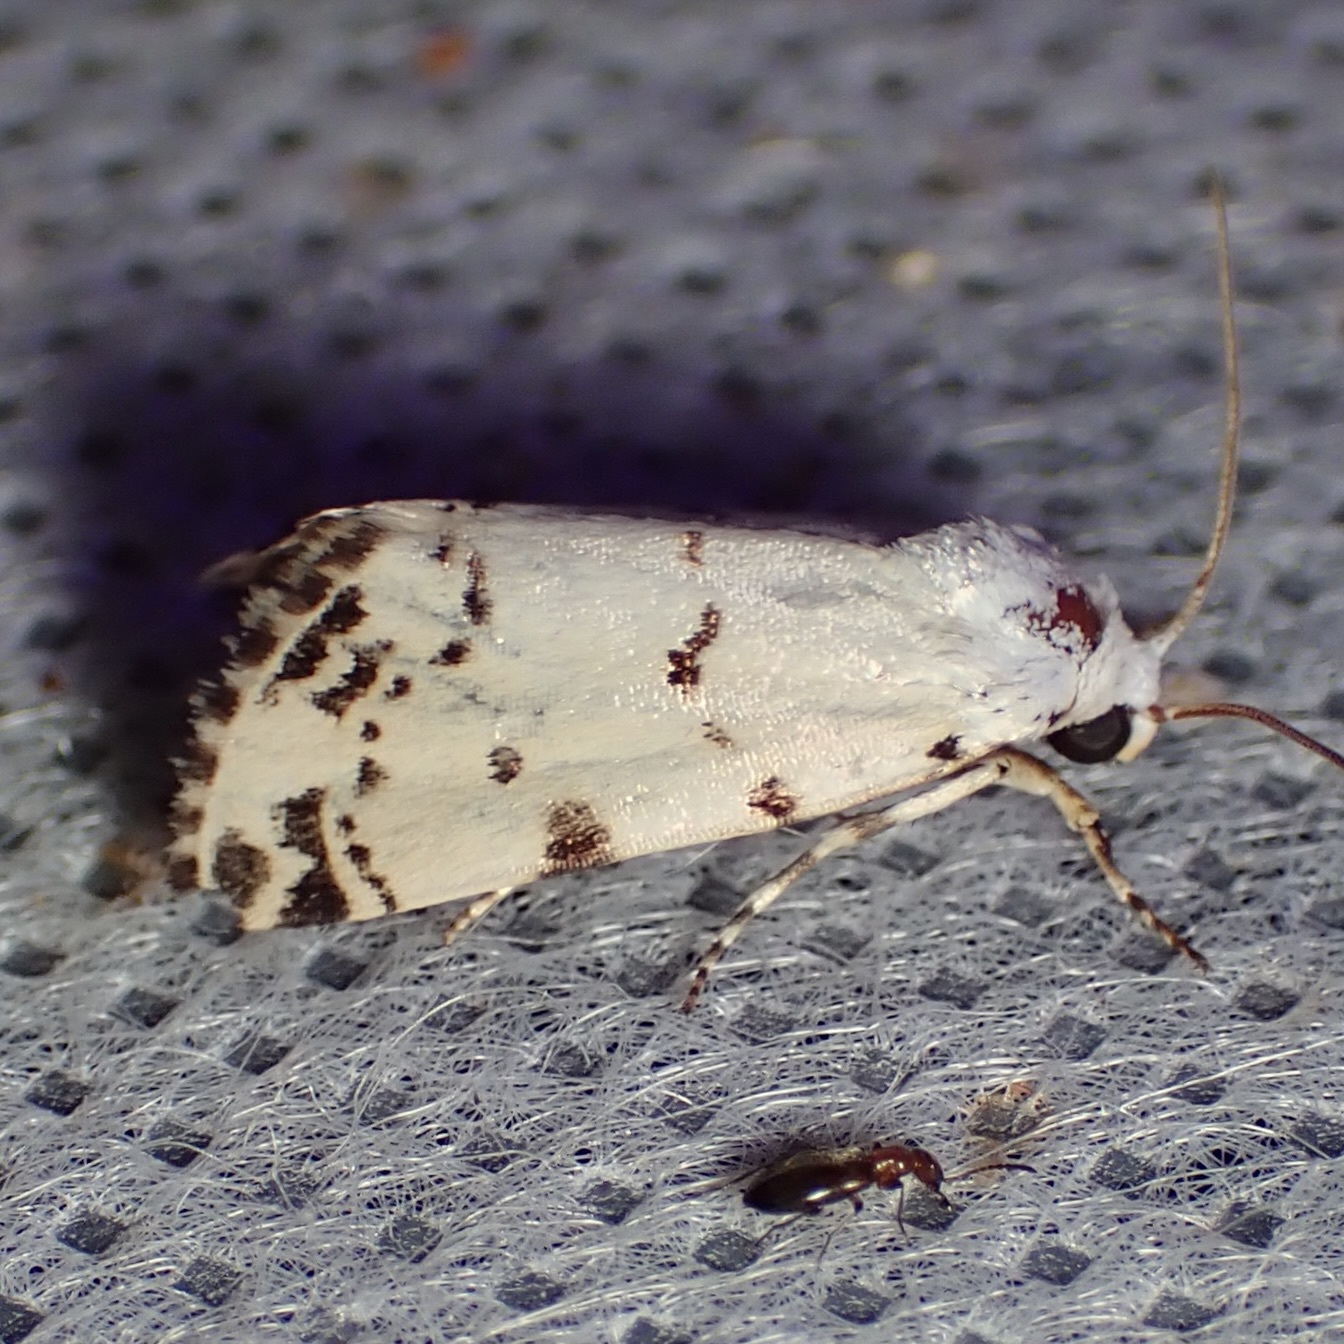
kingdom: Animalia
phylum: Arthropoda
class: Insecta
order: Lepidoptera
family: Noctuidae
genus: Grotella
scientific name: Grotella soror
